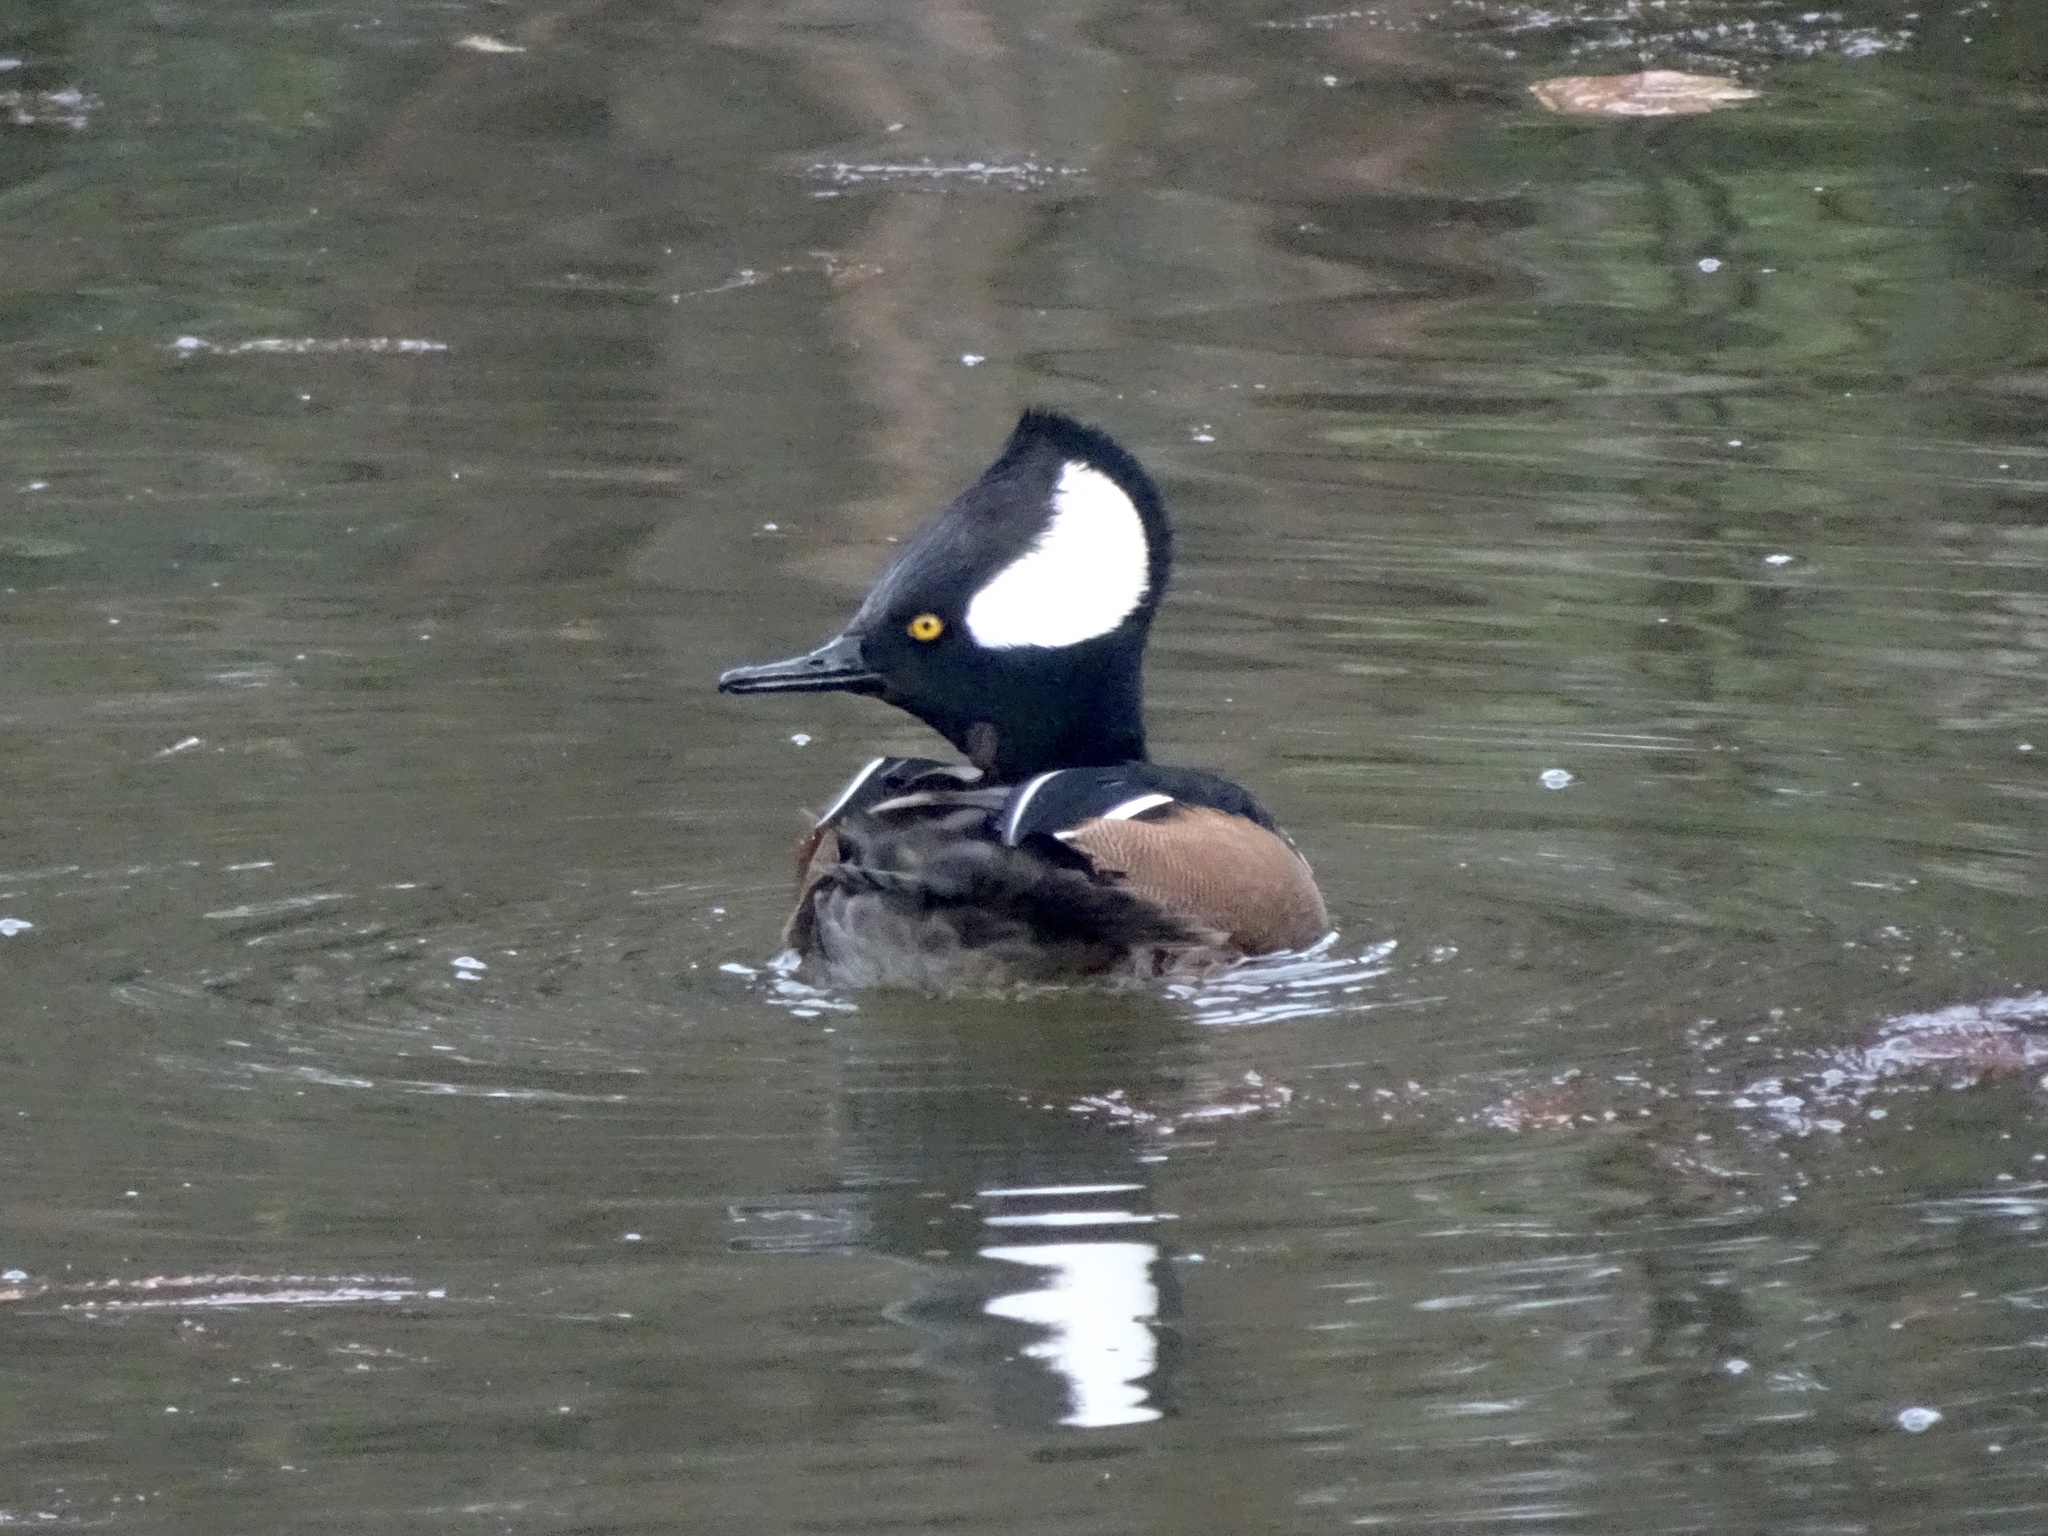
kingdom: Animalia
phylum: Chordata
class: Aves
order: Anseriformes
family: Anatidae
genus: Lophodytes
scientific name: Lophodytes cucullatus
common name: Hooded merganser
